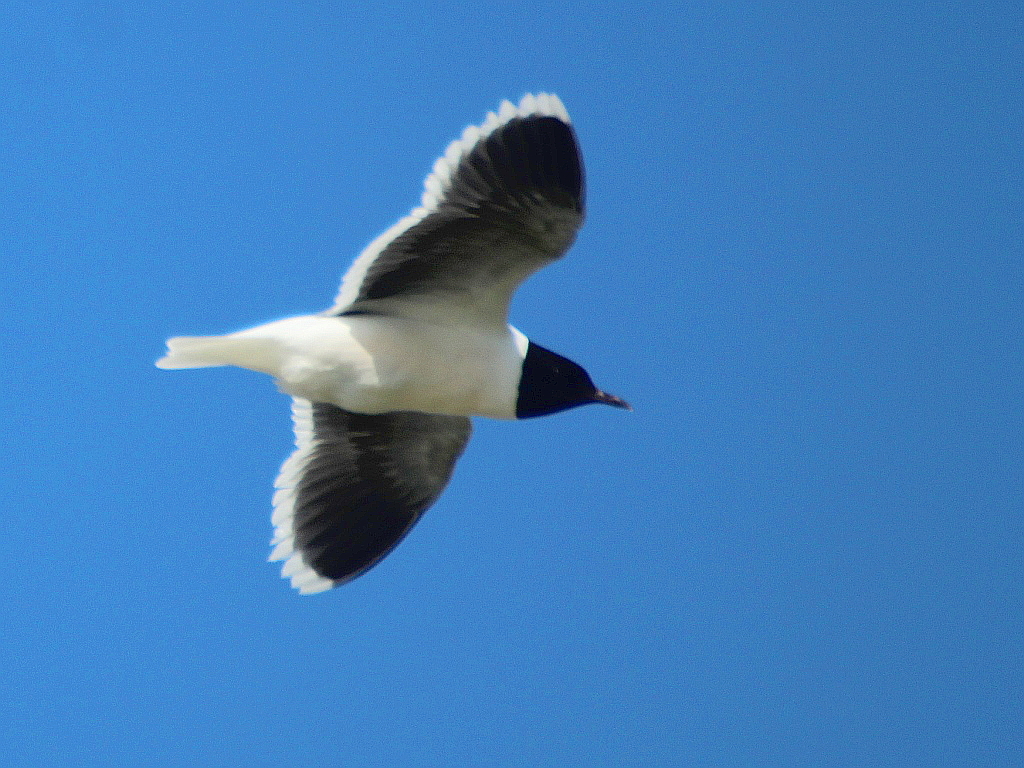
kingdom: Animalia
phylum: Chordata
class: Aves
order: Charadriiformes
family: Laridae
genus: Hydrocoloeus
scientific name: Hydrocoloeus minutus
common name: Little gull
